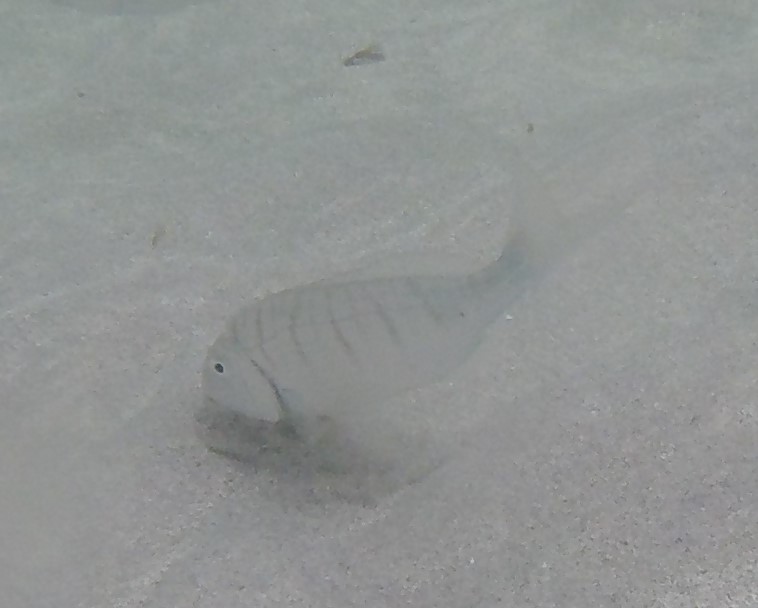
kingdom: Animalia
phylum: Chordata
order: Perciformes
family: Sparidae
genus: Lithognathus
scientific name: Lithognathus mormyrus
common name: Sand steenbras
